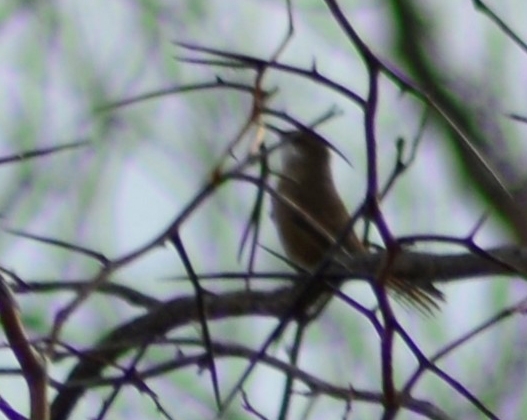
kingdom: Animalia
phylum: Chordata
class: Aves
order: Passeriformes
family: Furnariidae
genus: Upucerthia
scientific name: Upucerthia certhioides
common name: Chaco earthcreeper
